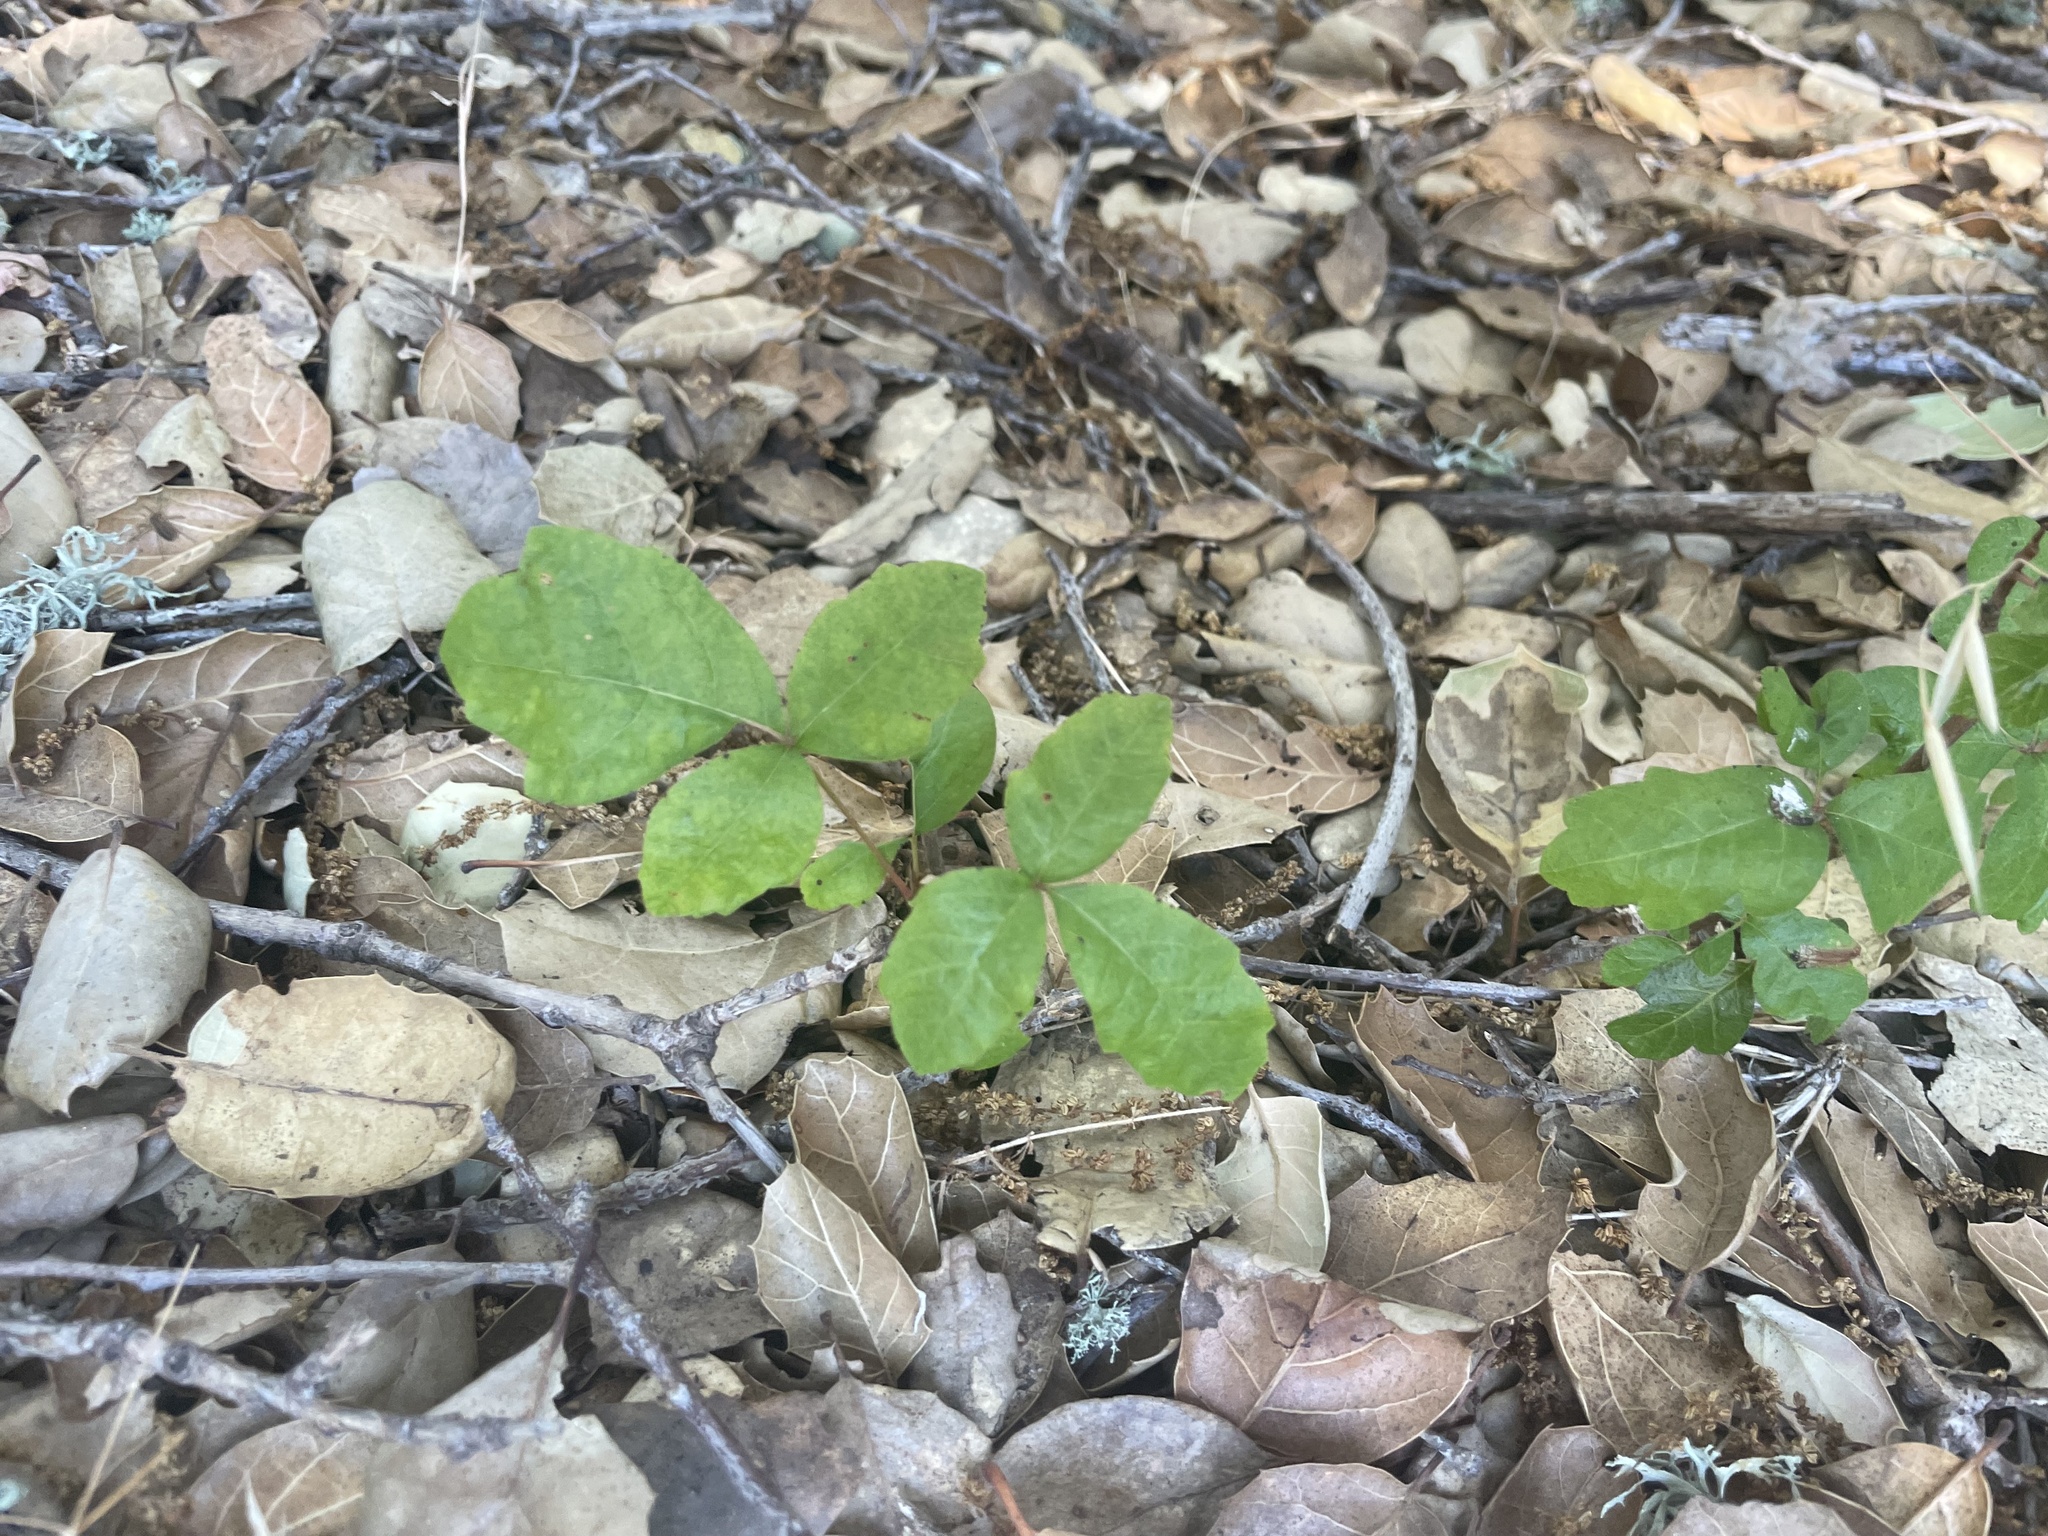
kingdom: Plantae
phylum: Tracheophyta
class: Magnoliopsida
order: Sapindales
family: Anacardiaceae
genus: Toxicodendron
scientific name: Toxicodendron diversilobum
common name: Pacific poison-oak
